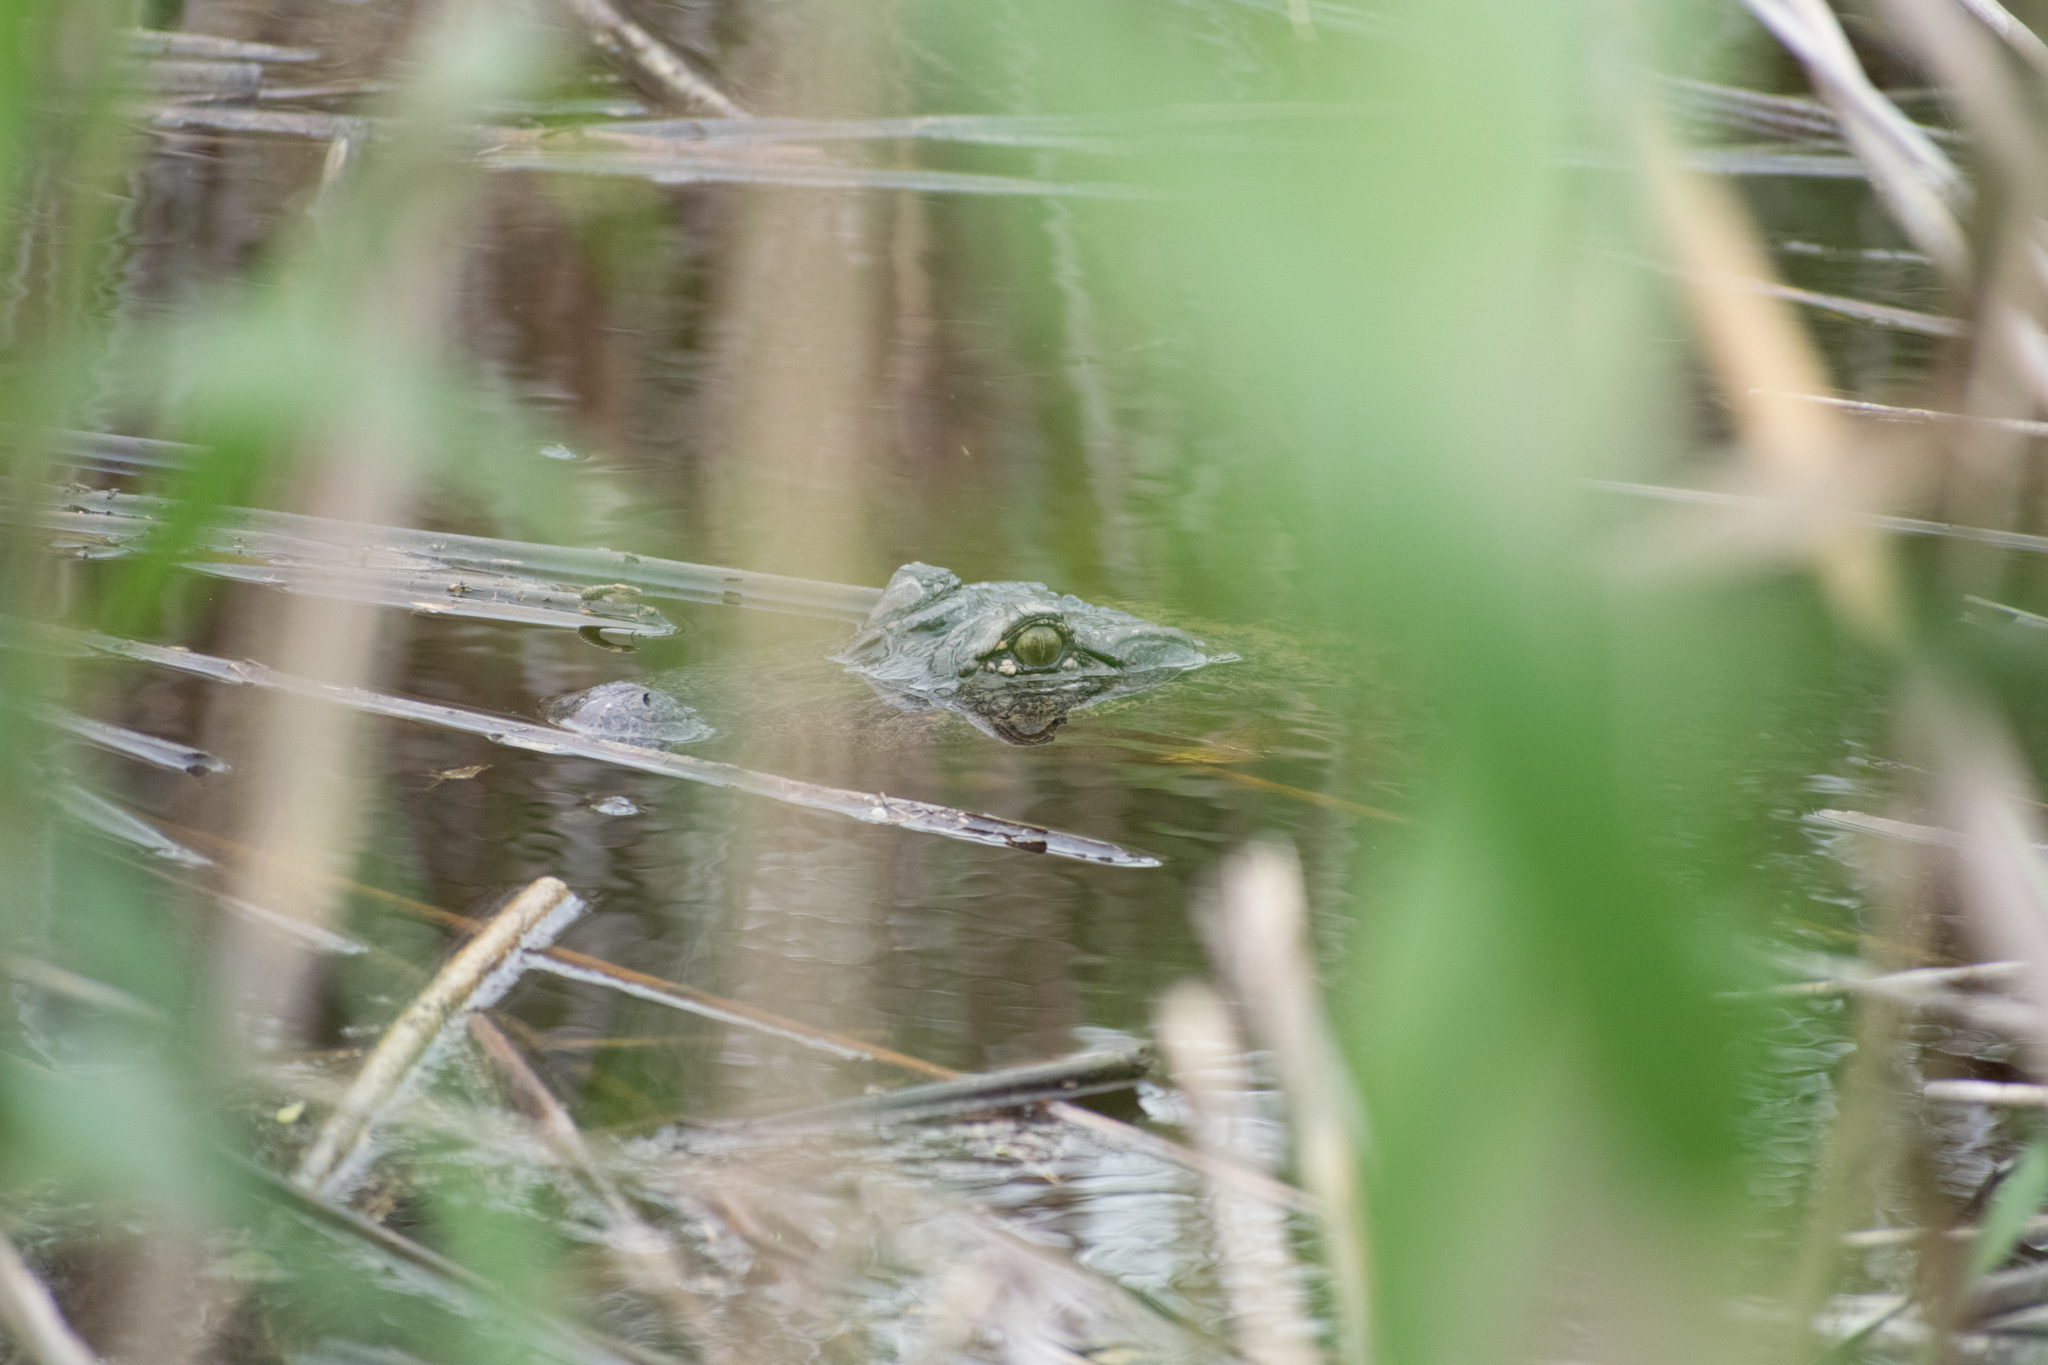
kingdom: Animalia
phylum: Chordata
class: Crocodylia
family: Alligatoridae
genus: Alligator
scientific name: Alligator mississippiensis
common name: American alligator
